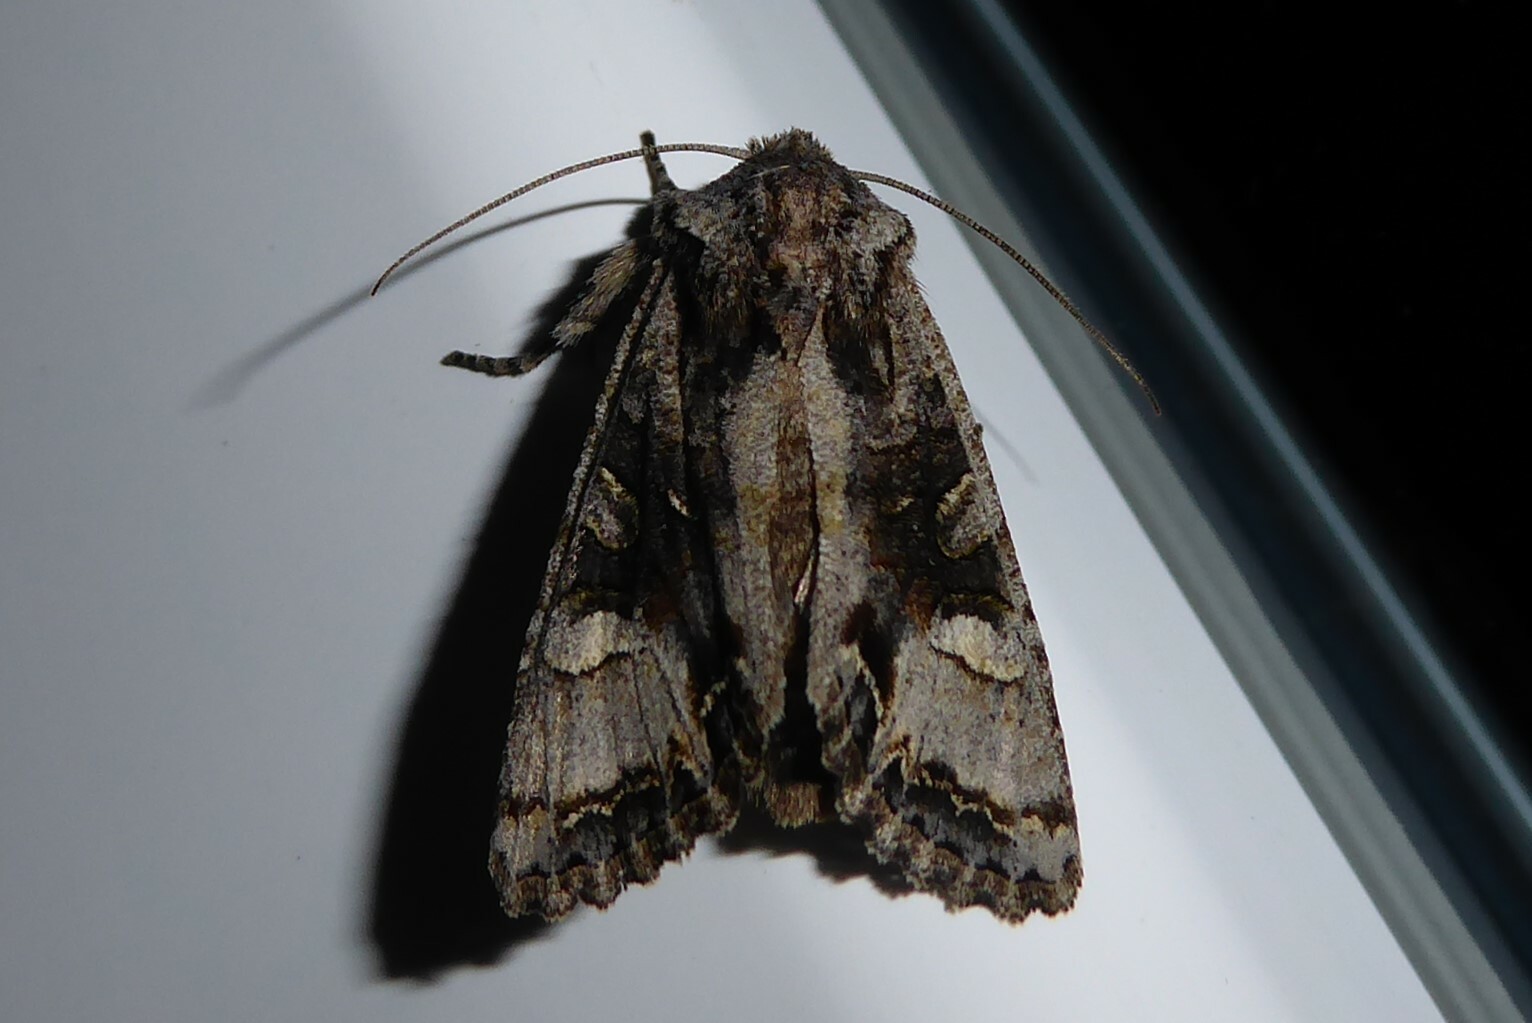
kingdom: Animalia
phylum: Arthropoda
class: Insecta
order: Lepidoptera
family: Noctuidae
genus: Ichneutica
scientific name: Ichneutica insignis
